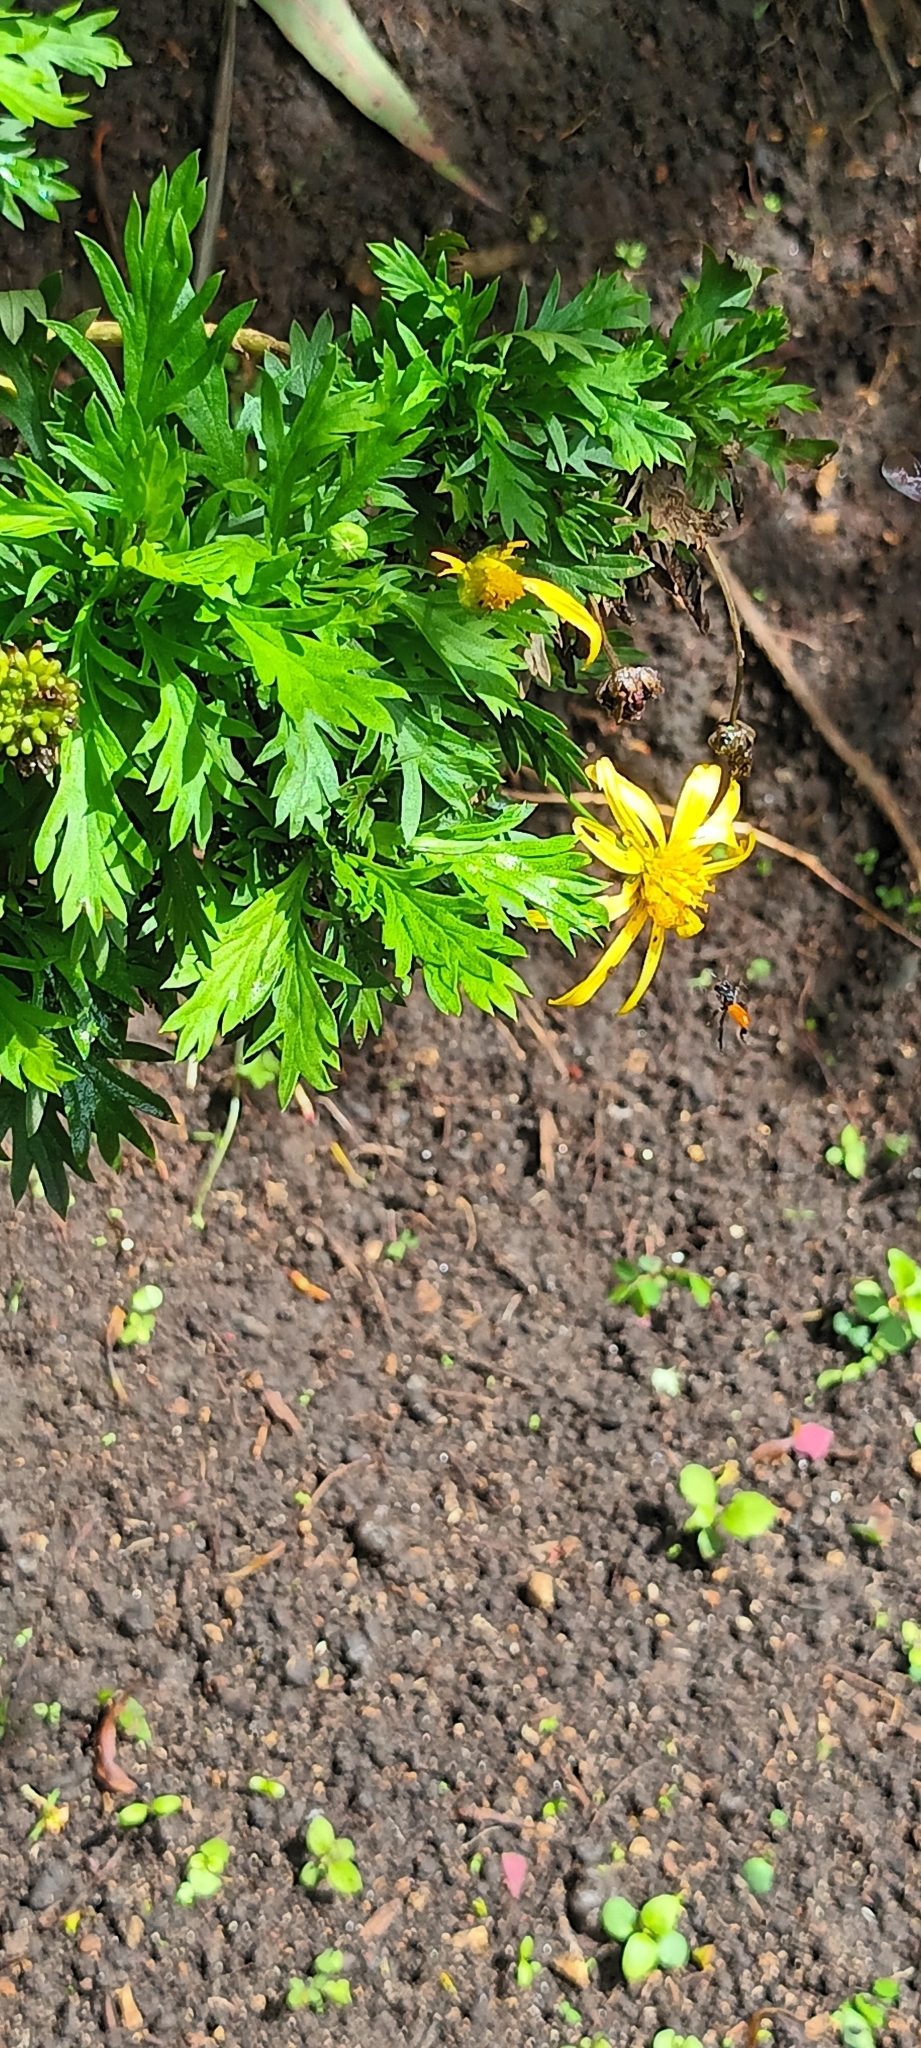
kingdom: Animalia
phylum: Arthropoda
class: Insecta
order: Hymenoptera
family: Apidae
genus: Trigona
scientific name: Trigona fulviventris
